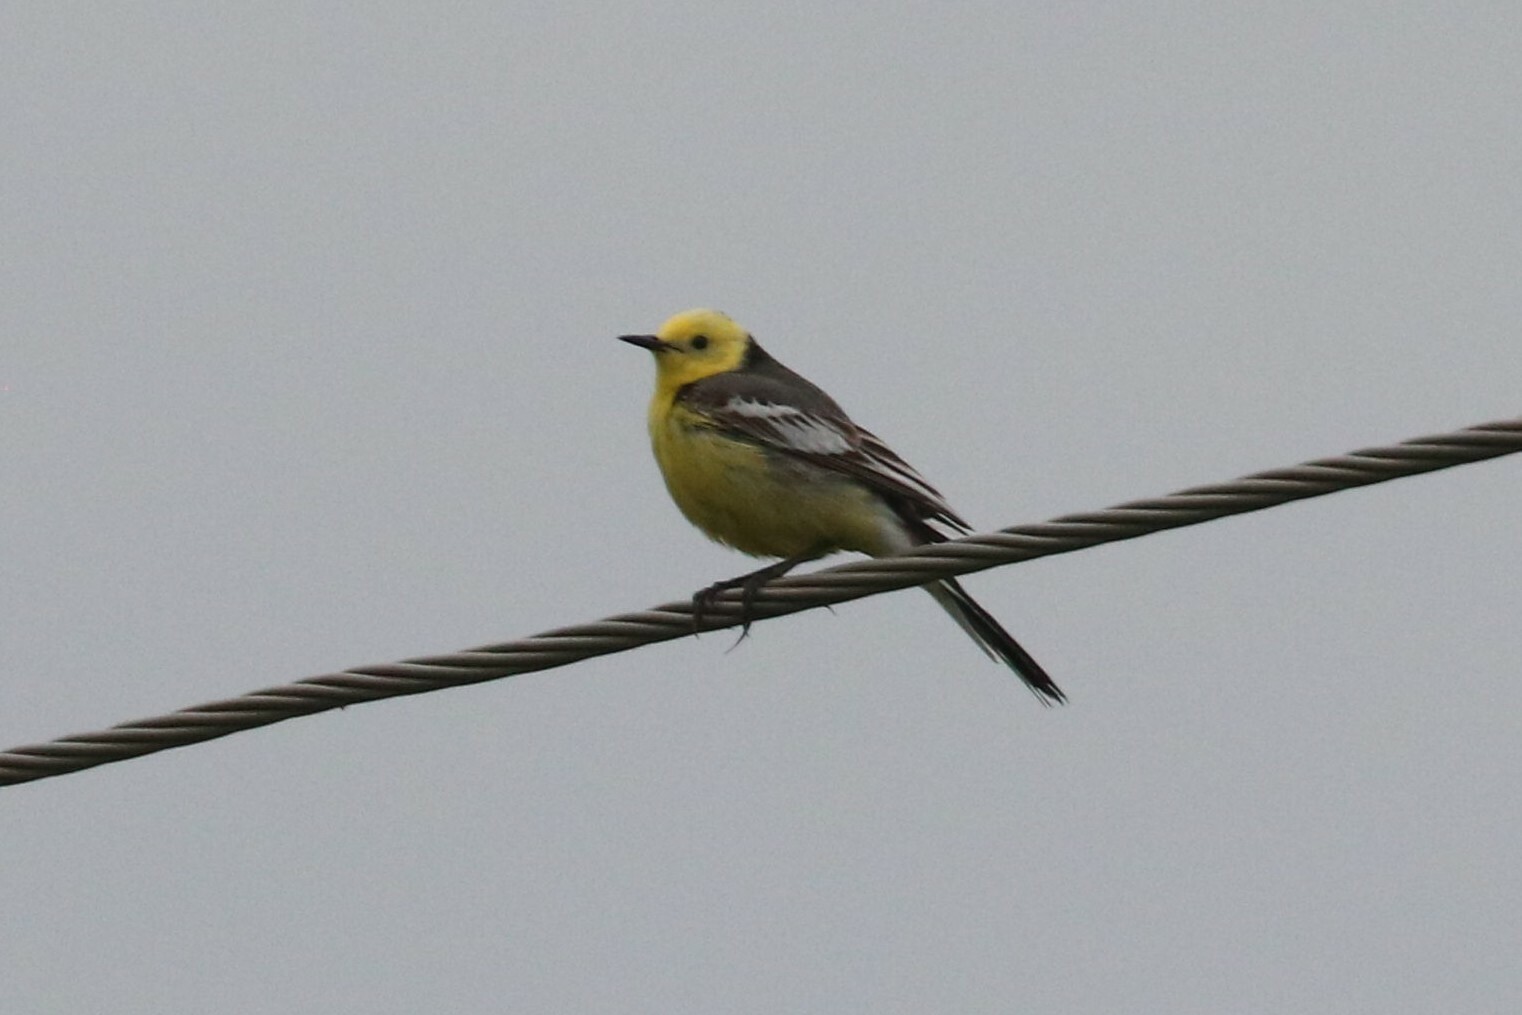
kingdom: Animalia
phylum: Chordata
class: Aves
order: Passeriformes
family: Motacillidae
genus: Motacilla
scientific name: Motacilla citreola
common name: Citrine wagtail
